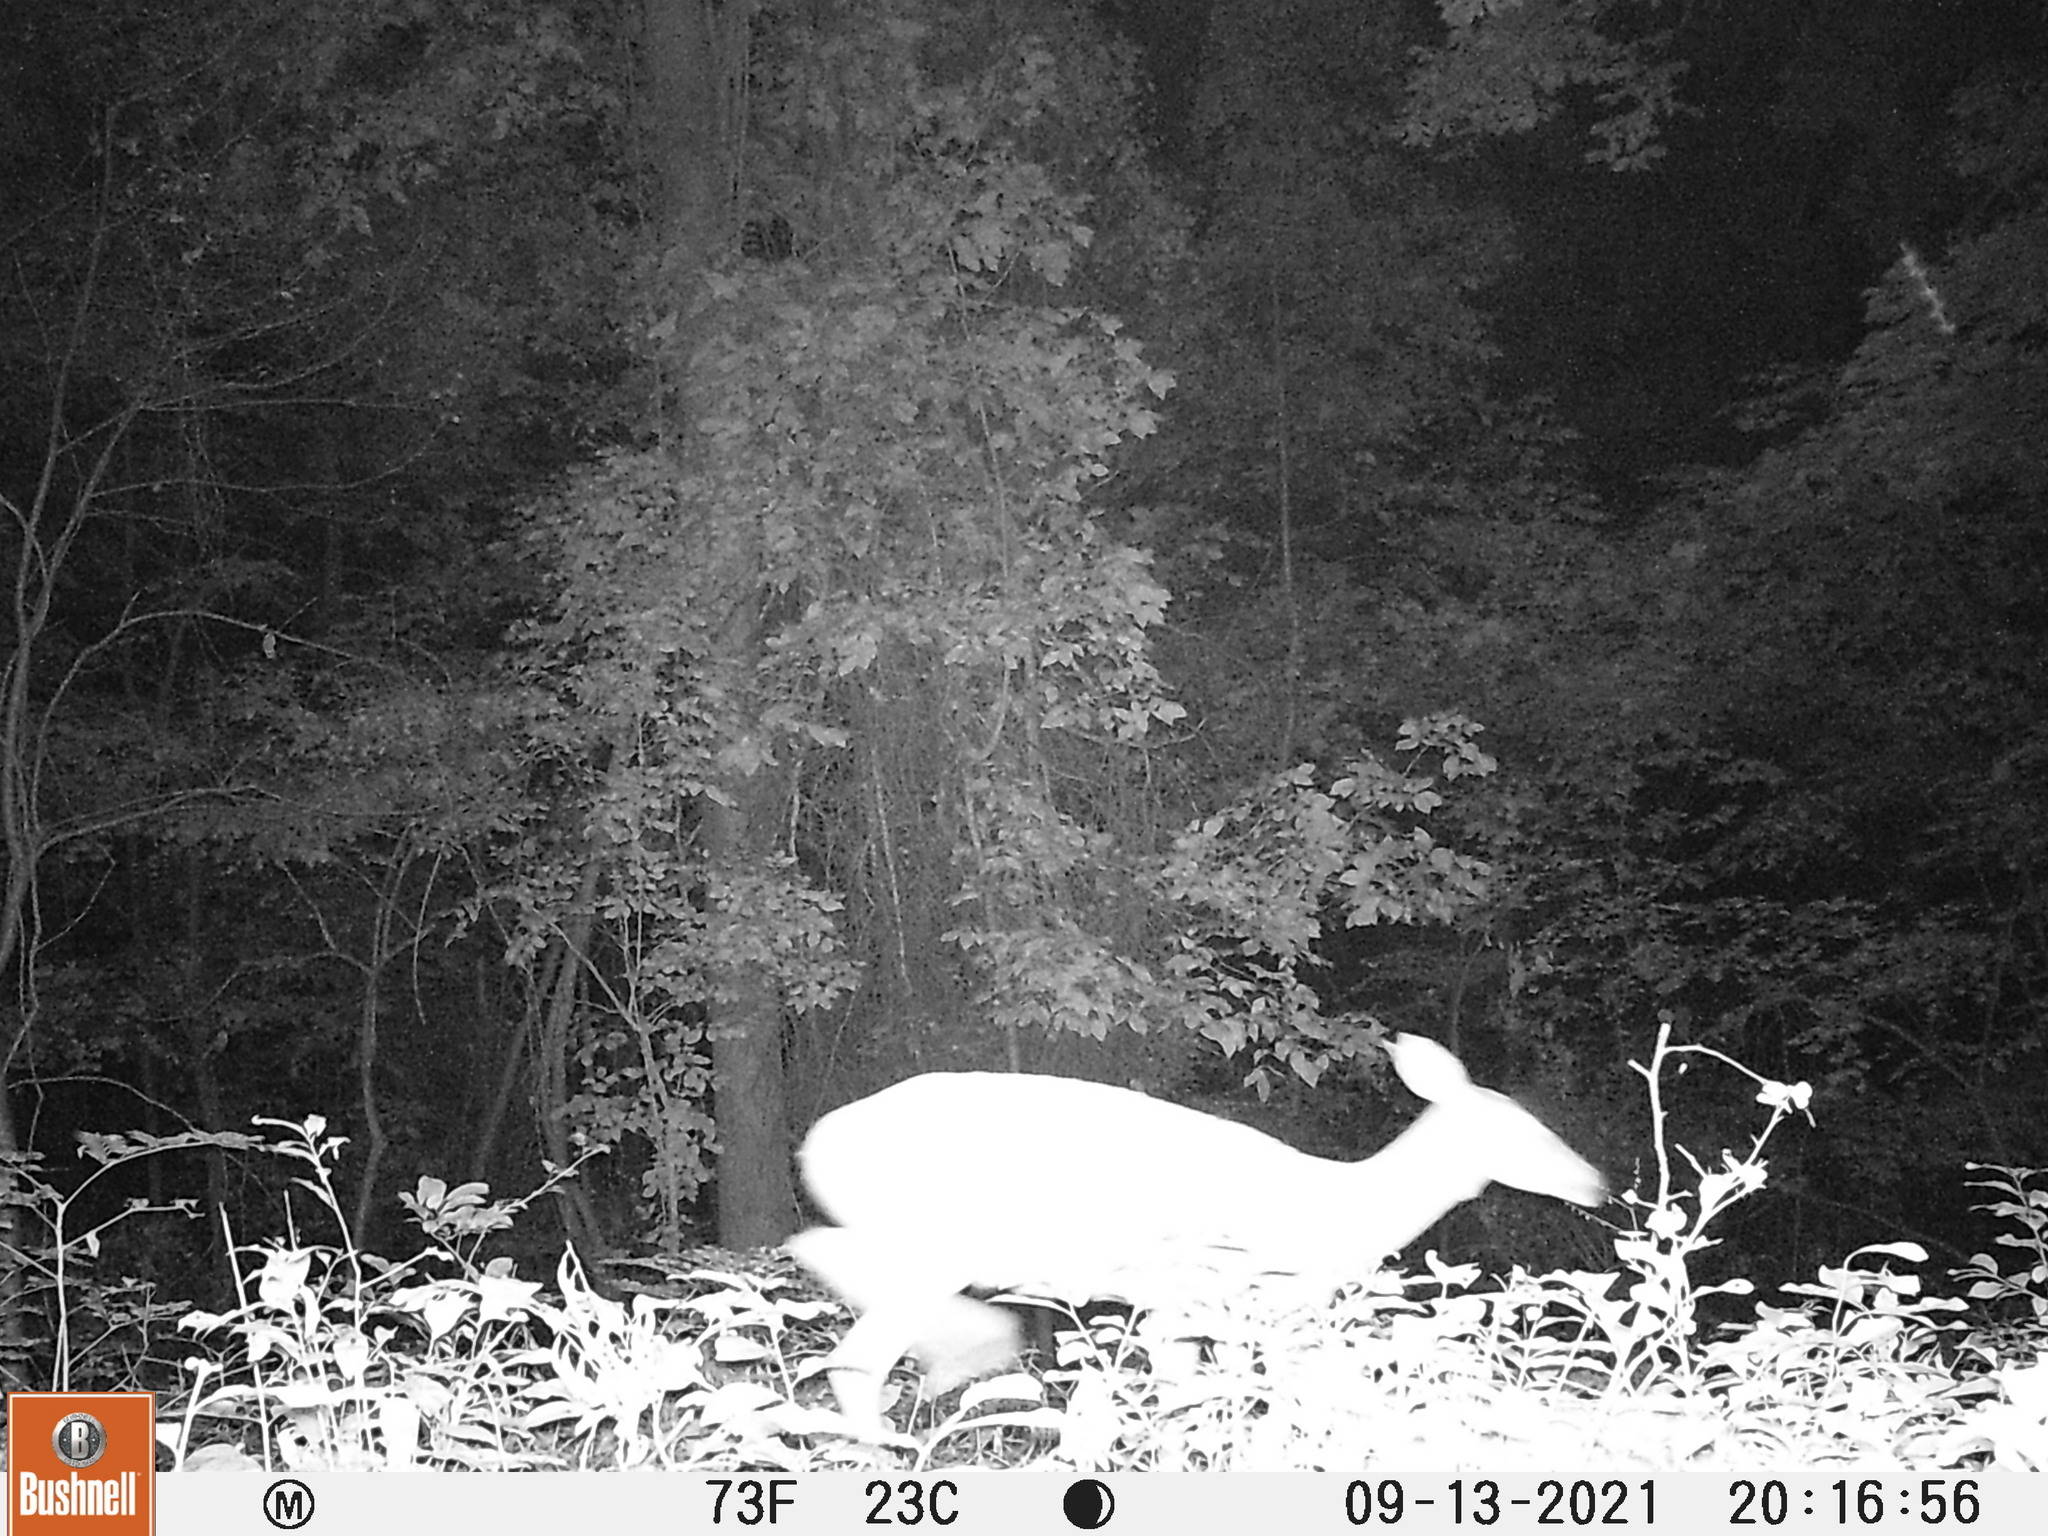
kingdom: Animalia
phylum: Chordata
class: Mammalia
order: Artiodactyla
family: Cervidae
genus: Odocoileus
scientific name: Odocoileus virginianus
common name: White-tailed deer
